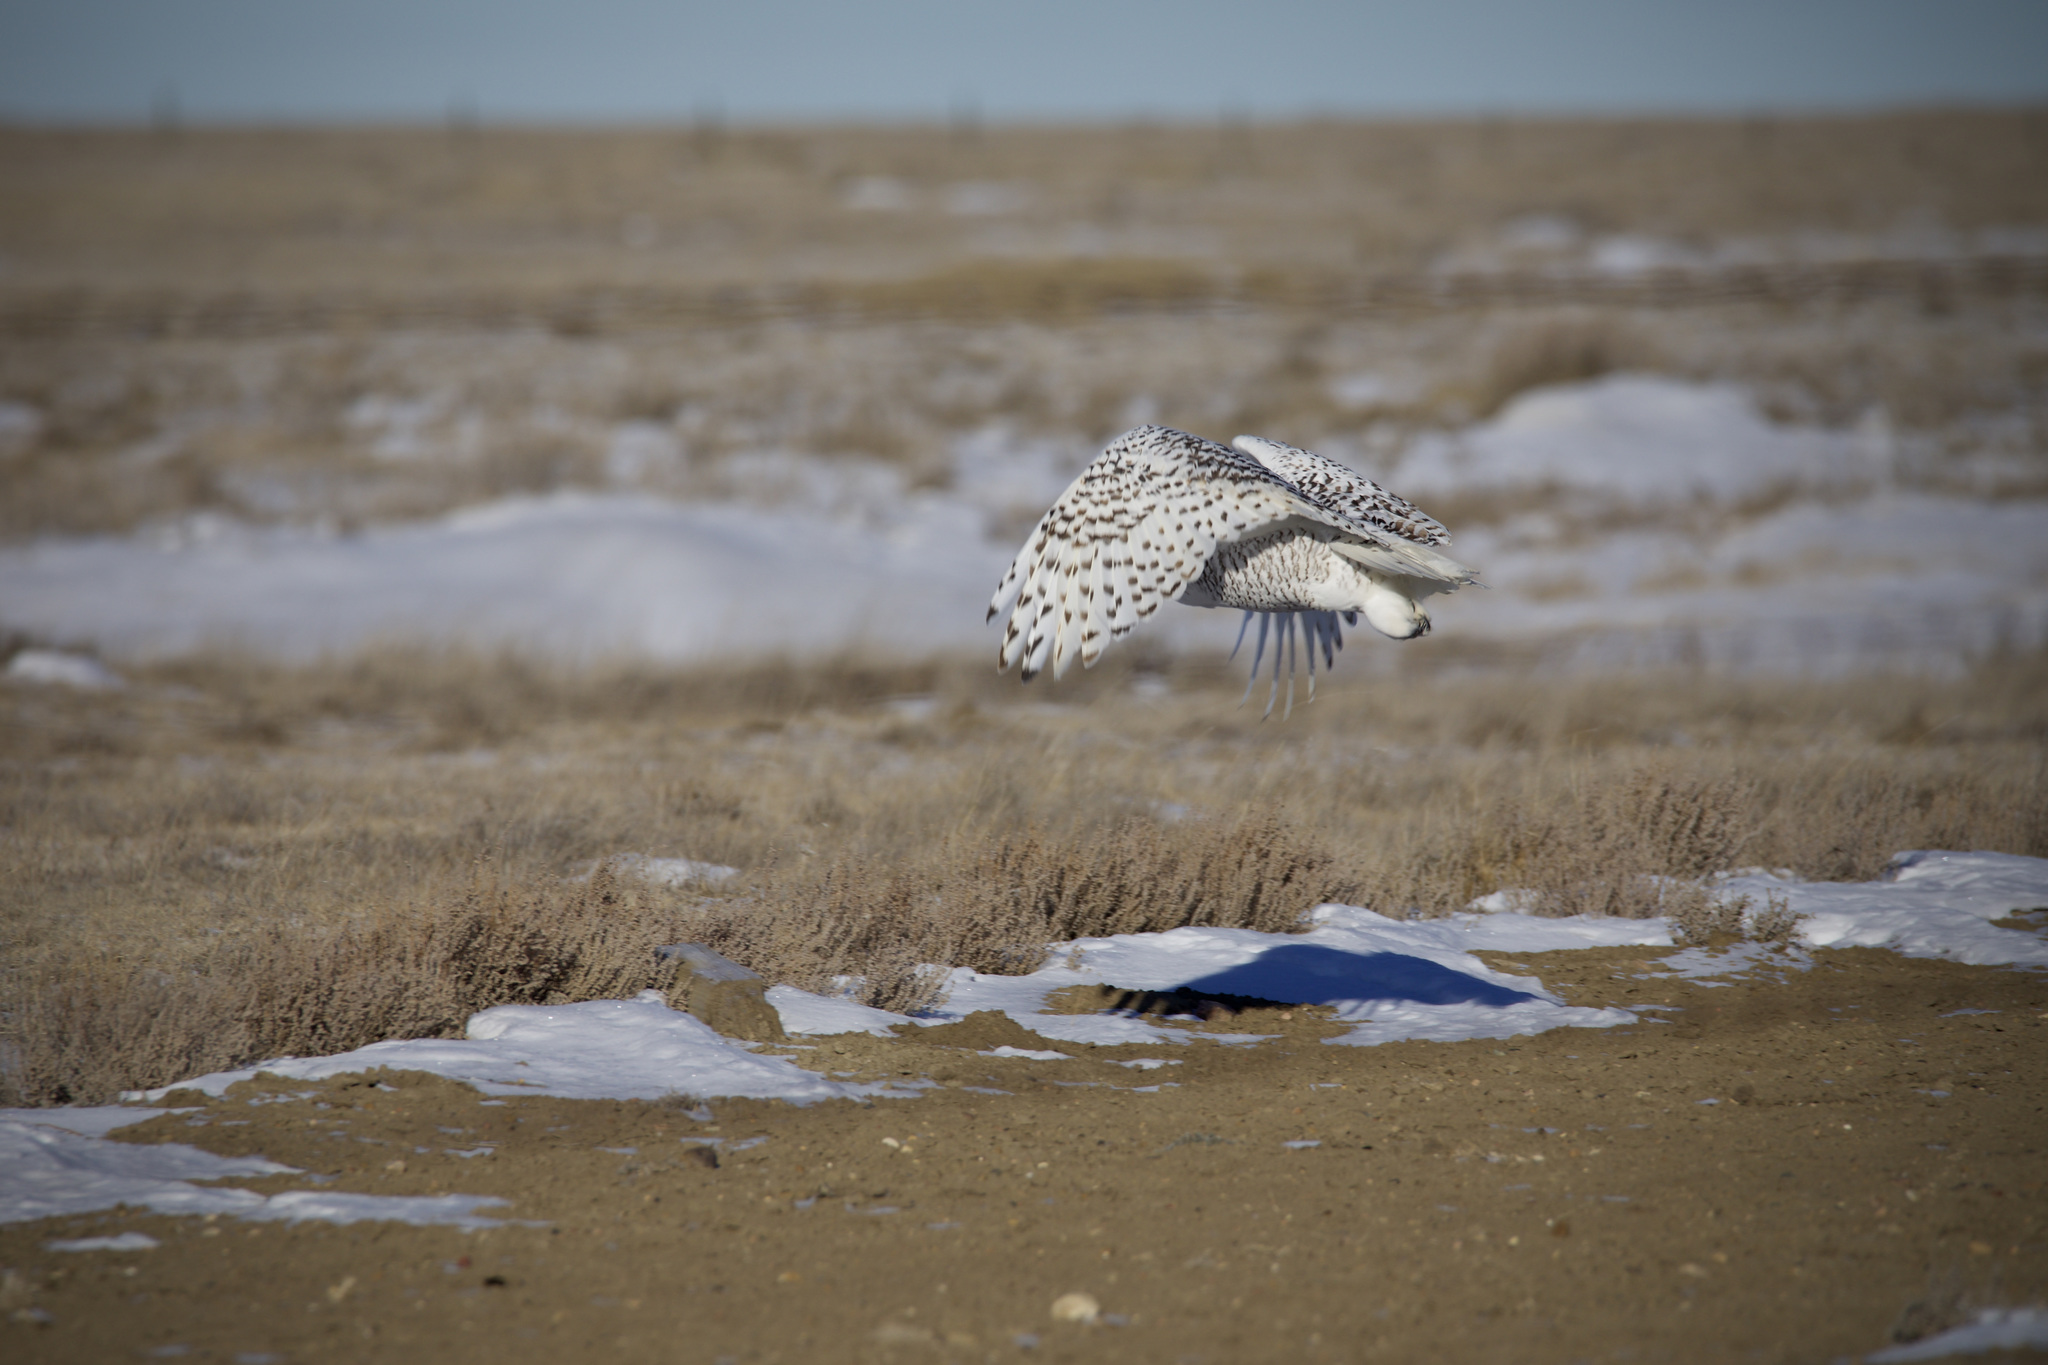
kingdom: Animalia
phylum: Chordata
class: Aves
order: Strigiformes
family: Strigidae
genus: Bubo
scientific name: Bubo scandiacus
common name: Snowy owl
